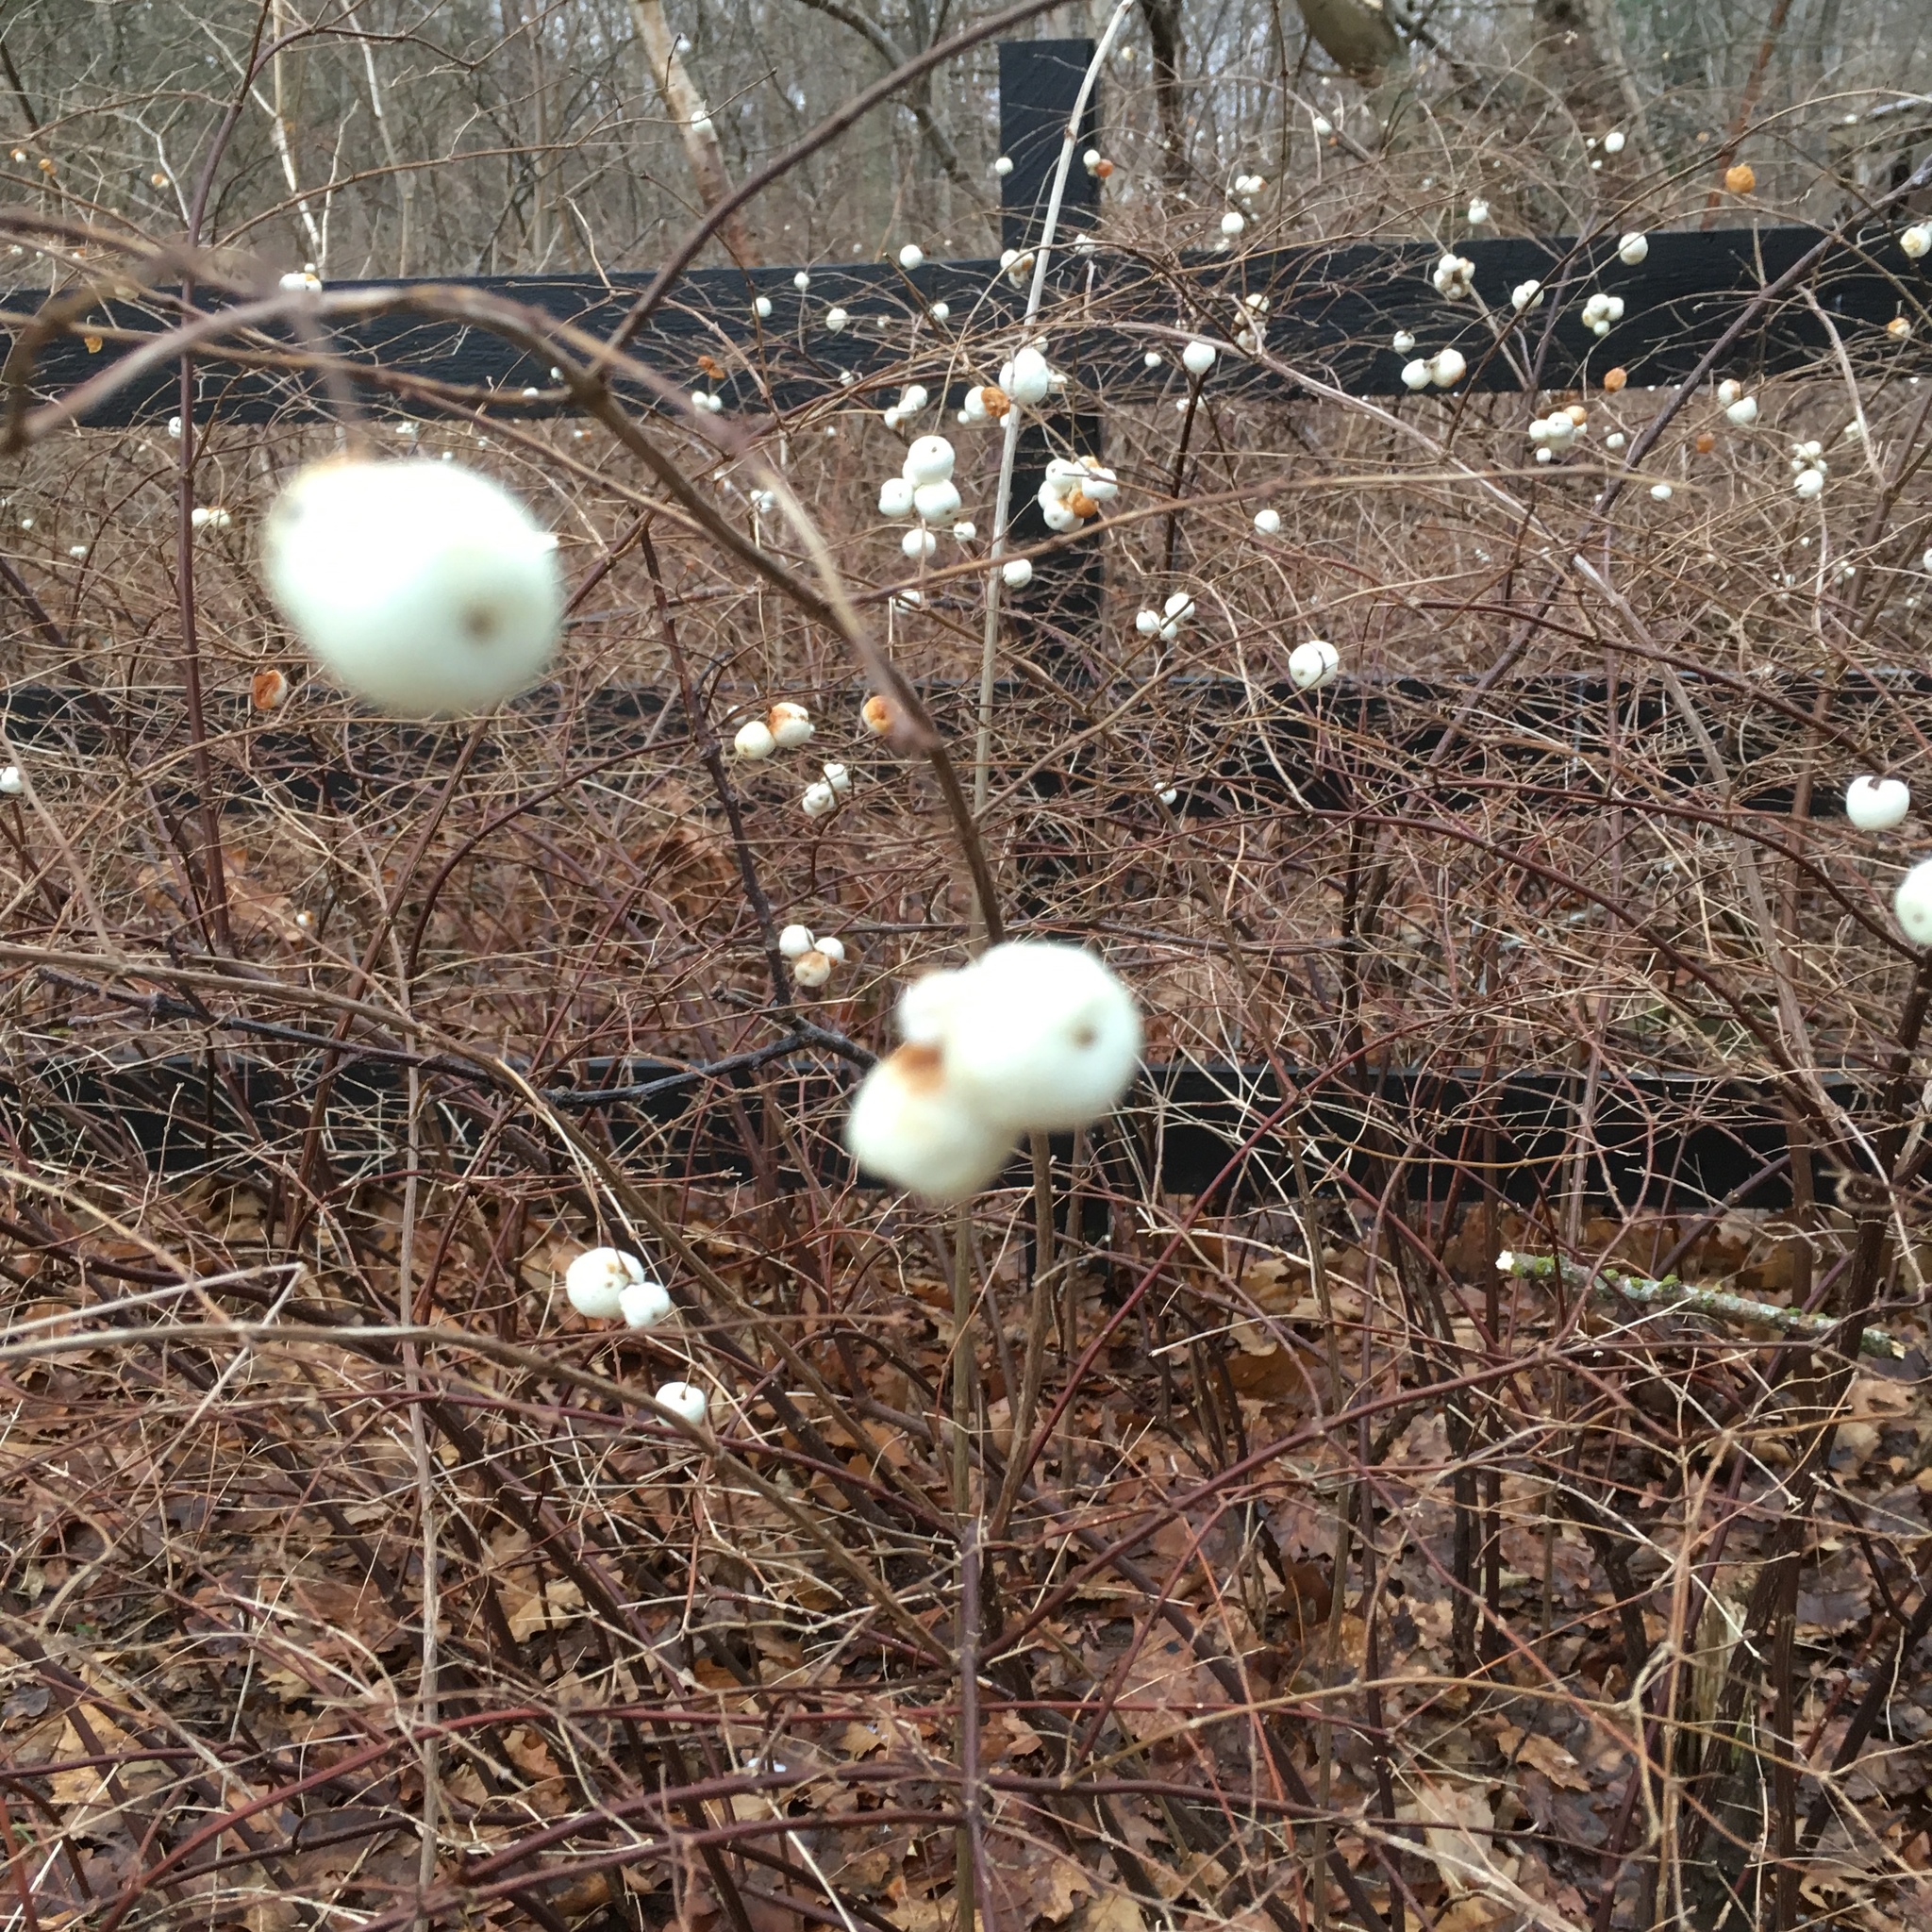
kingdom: Plantae
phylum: Tracheophyta
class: Magnoliopsida
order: Dipsacales
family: Caprifoliaceae
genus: Symphoricarpos
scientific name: Symphoricarpos albus
